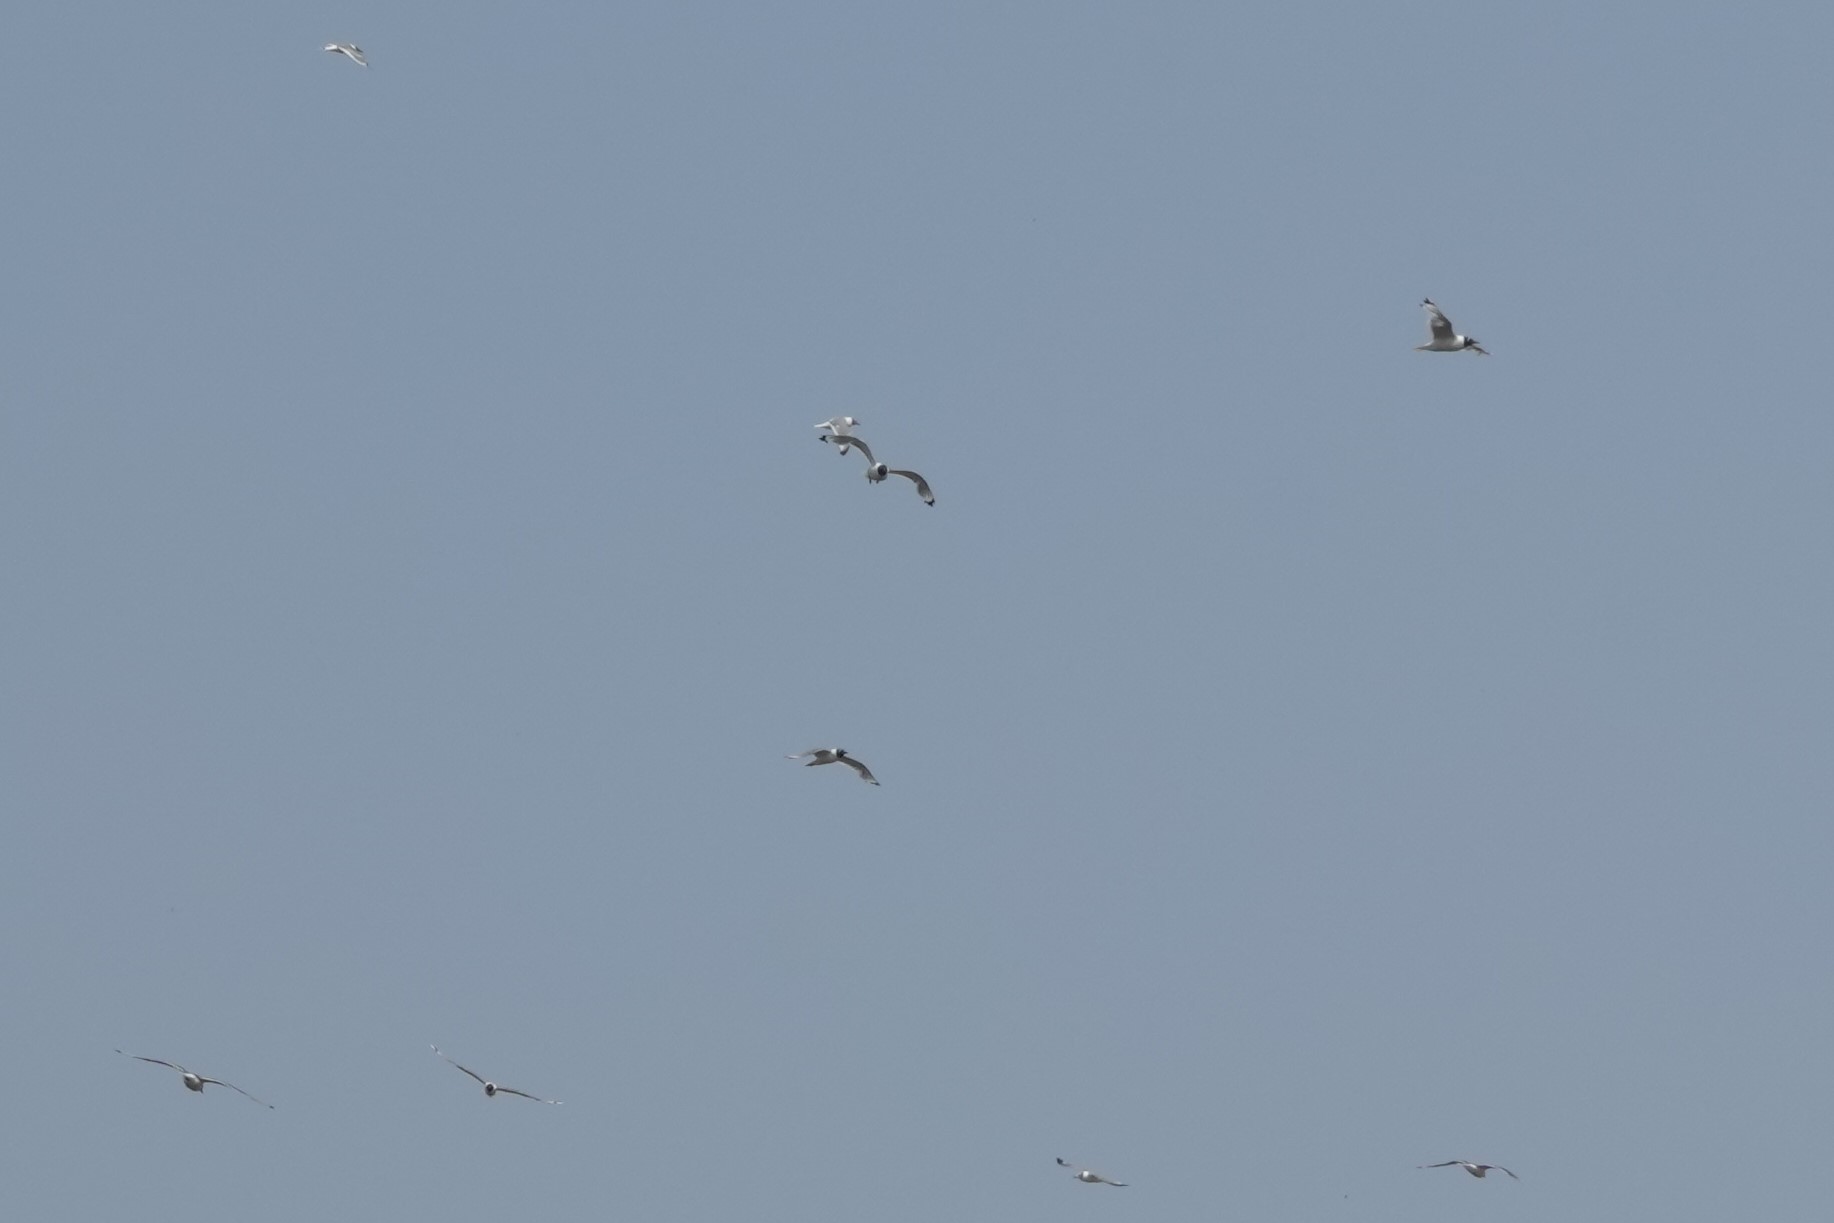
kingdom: Animalia
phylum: Chordata
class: Aves
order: Charadriiformes
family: Laridae
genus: Leucophaeus
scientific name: Leucophaeus pipixcan
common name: Franklin's gull
